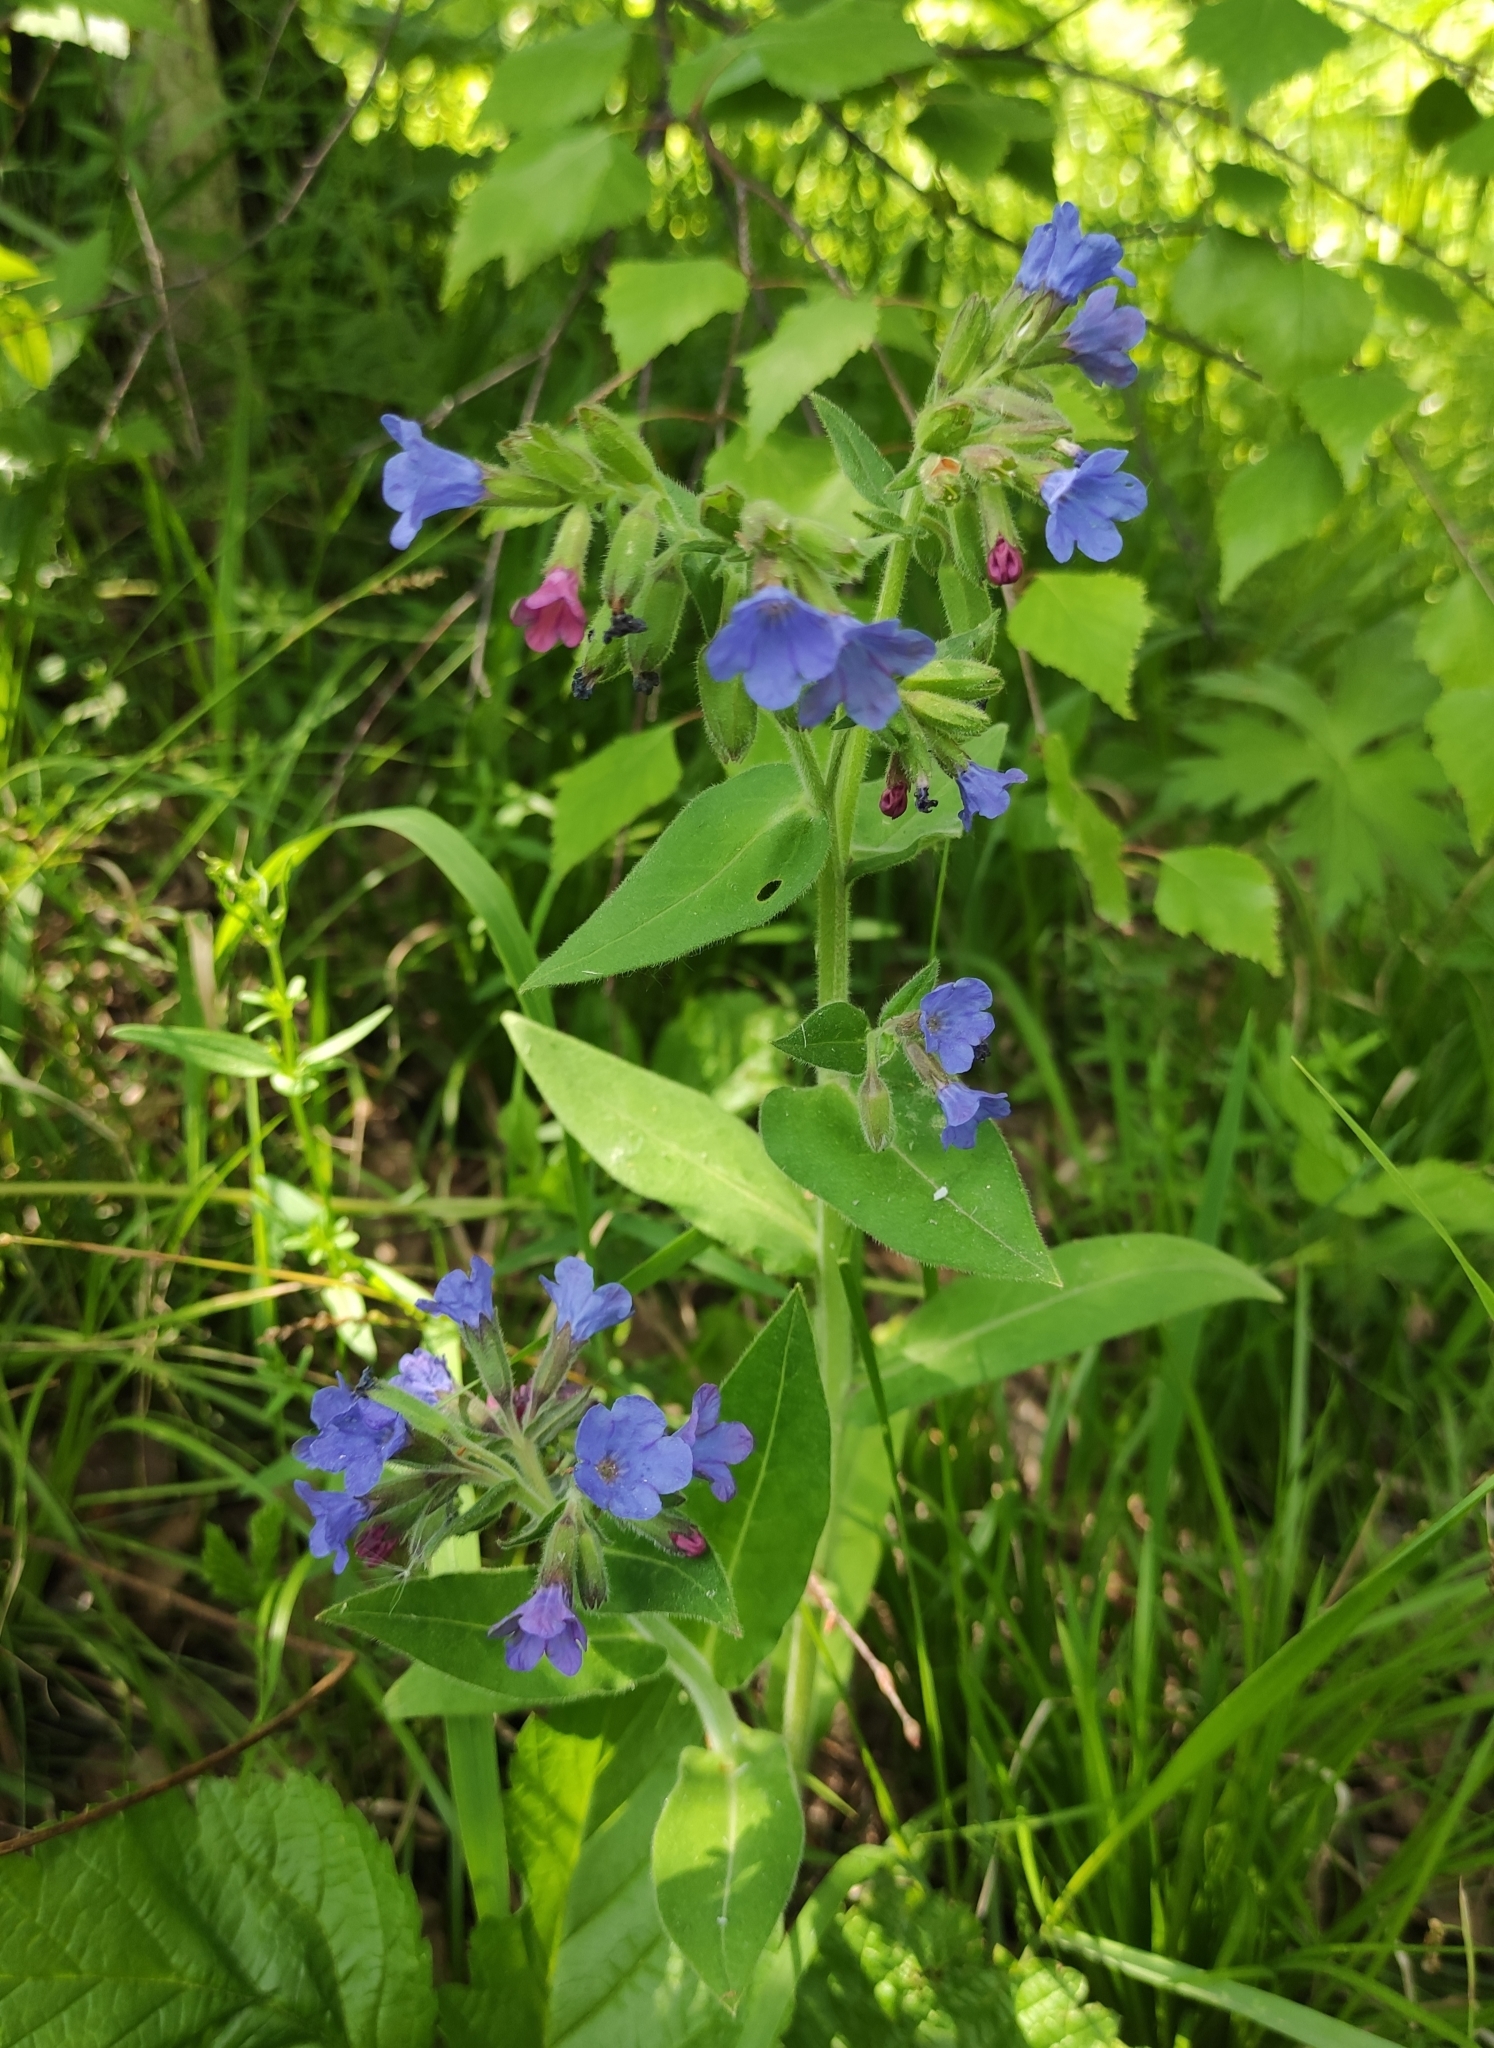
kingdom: Plantae
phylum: Tracheophyta
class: Magnoliopsida
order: Boraginales
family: Boraginaceae
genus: Pulmonaria
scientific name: Pulmonaria mollis
